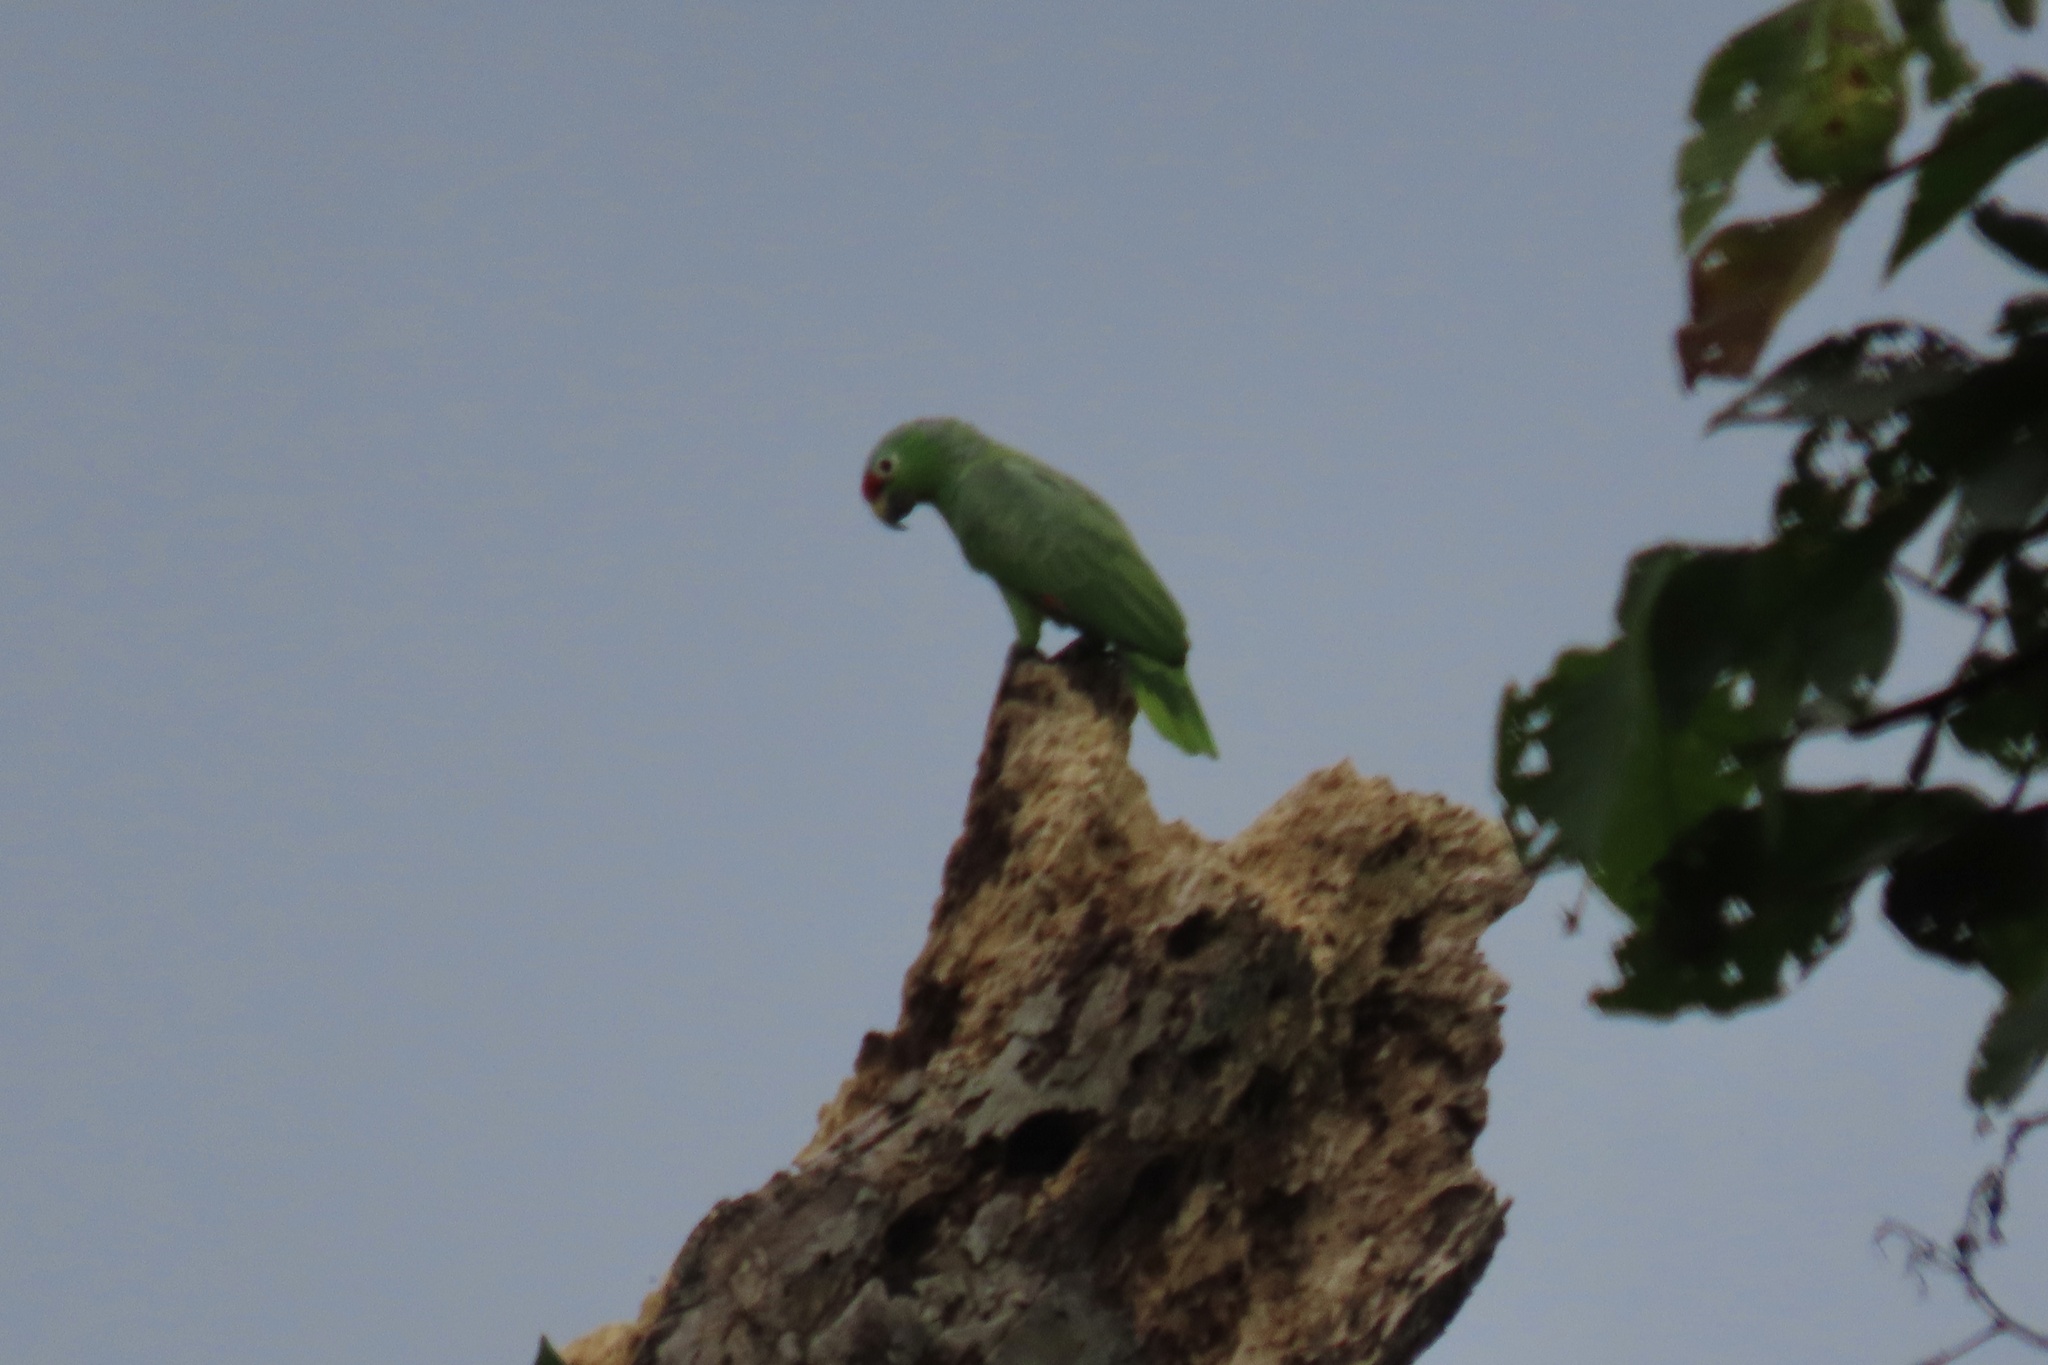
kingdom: Animalia
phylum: Chordata
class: Aves
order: Psittaciformes
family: Psittacidae
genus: Amazona
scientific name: Amazona autumnalis
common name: Red-lored amazon
